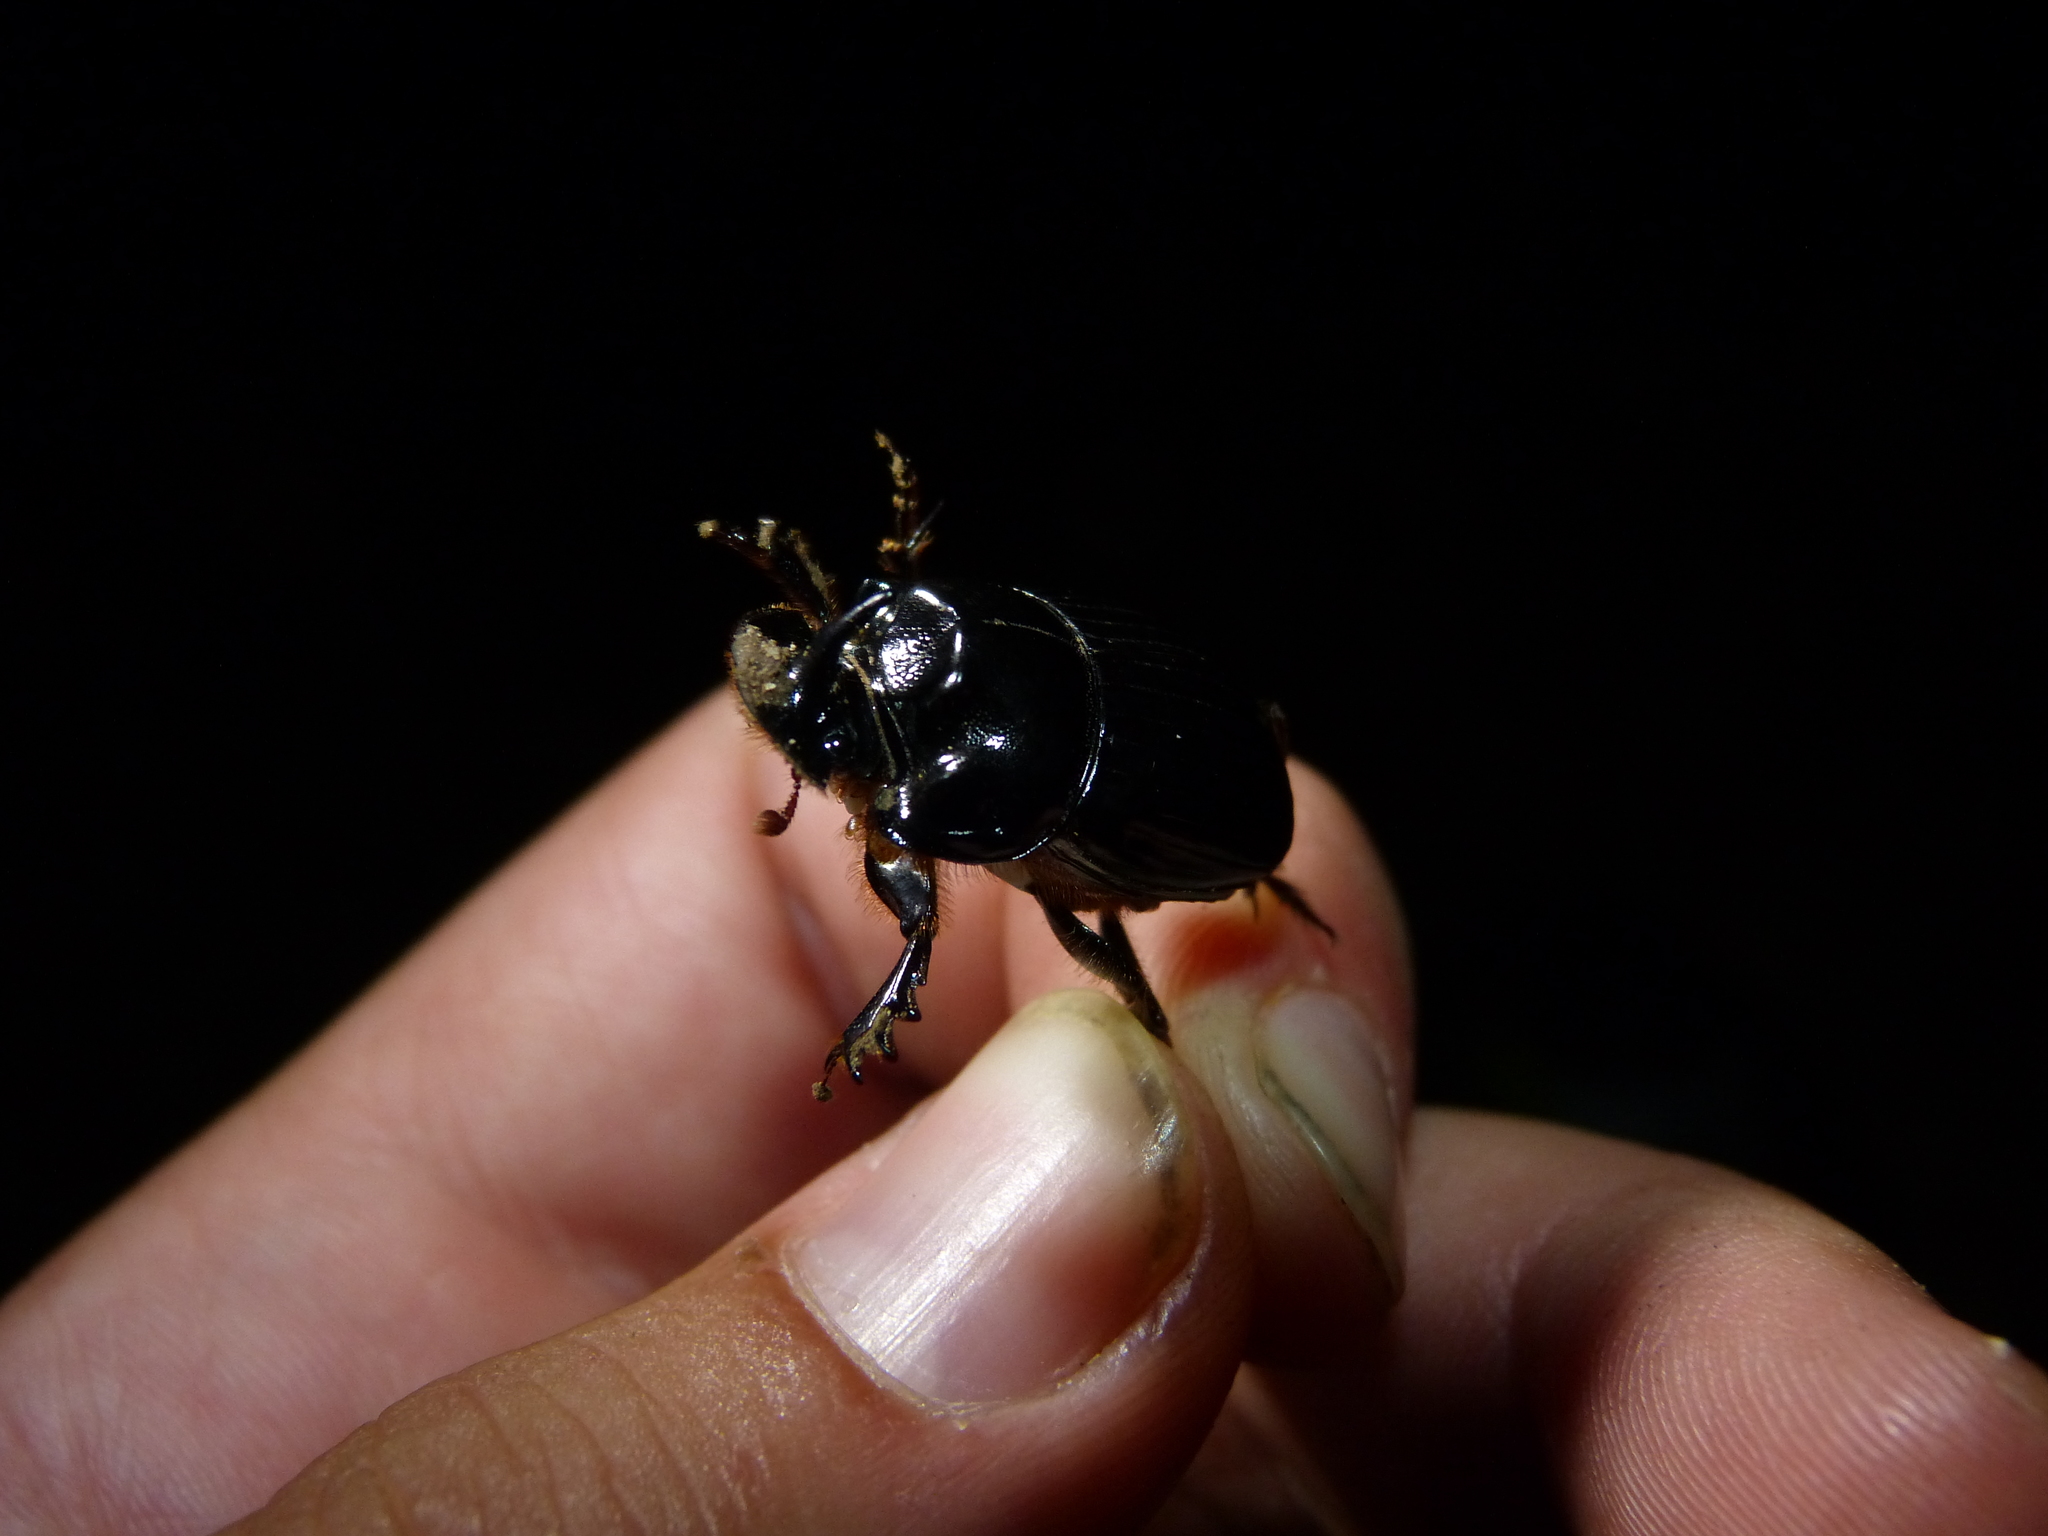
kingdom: Animalia
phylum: Arthropoda
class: Insecta
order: Coleoptera
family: Scarabaeidae
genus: Copris
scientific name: Copris lunaris
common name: Horned dung beetle
